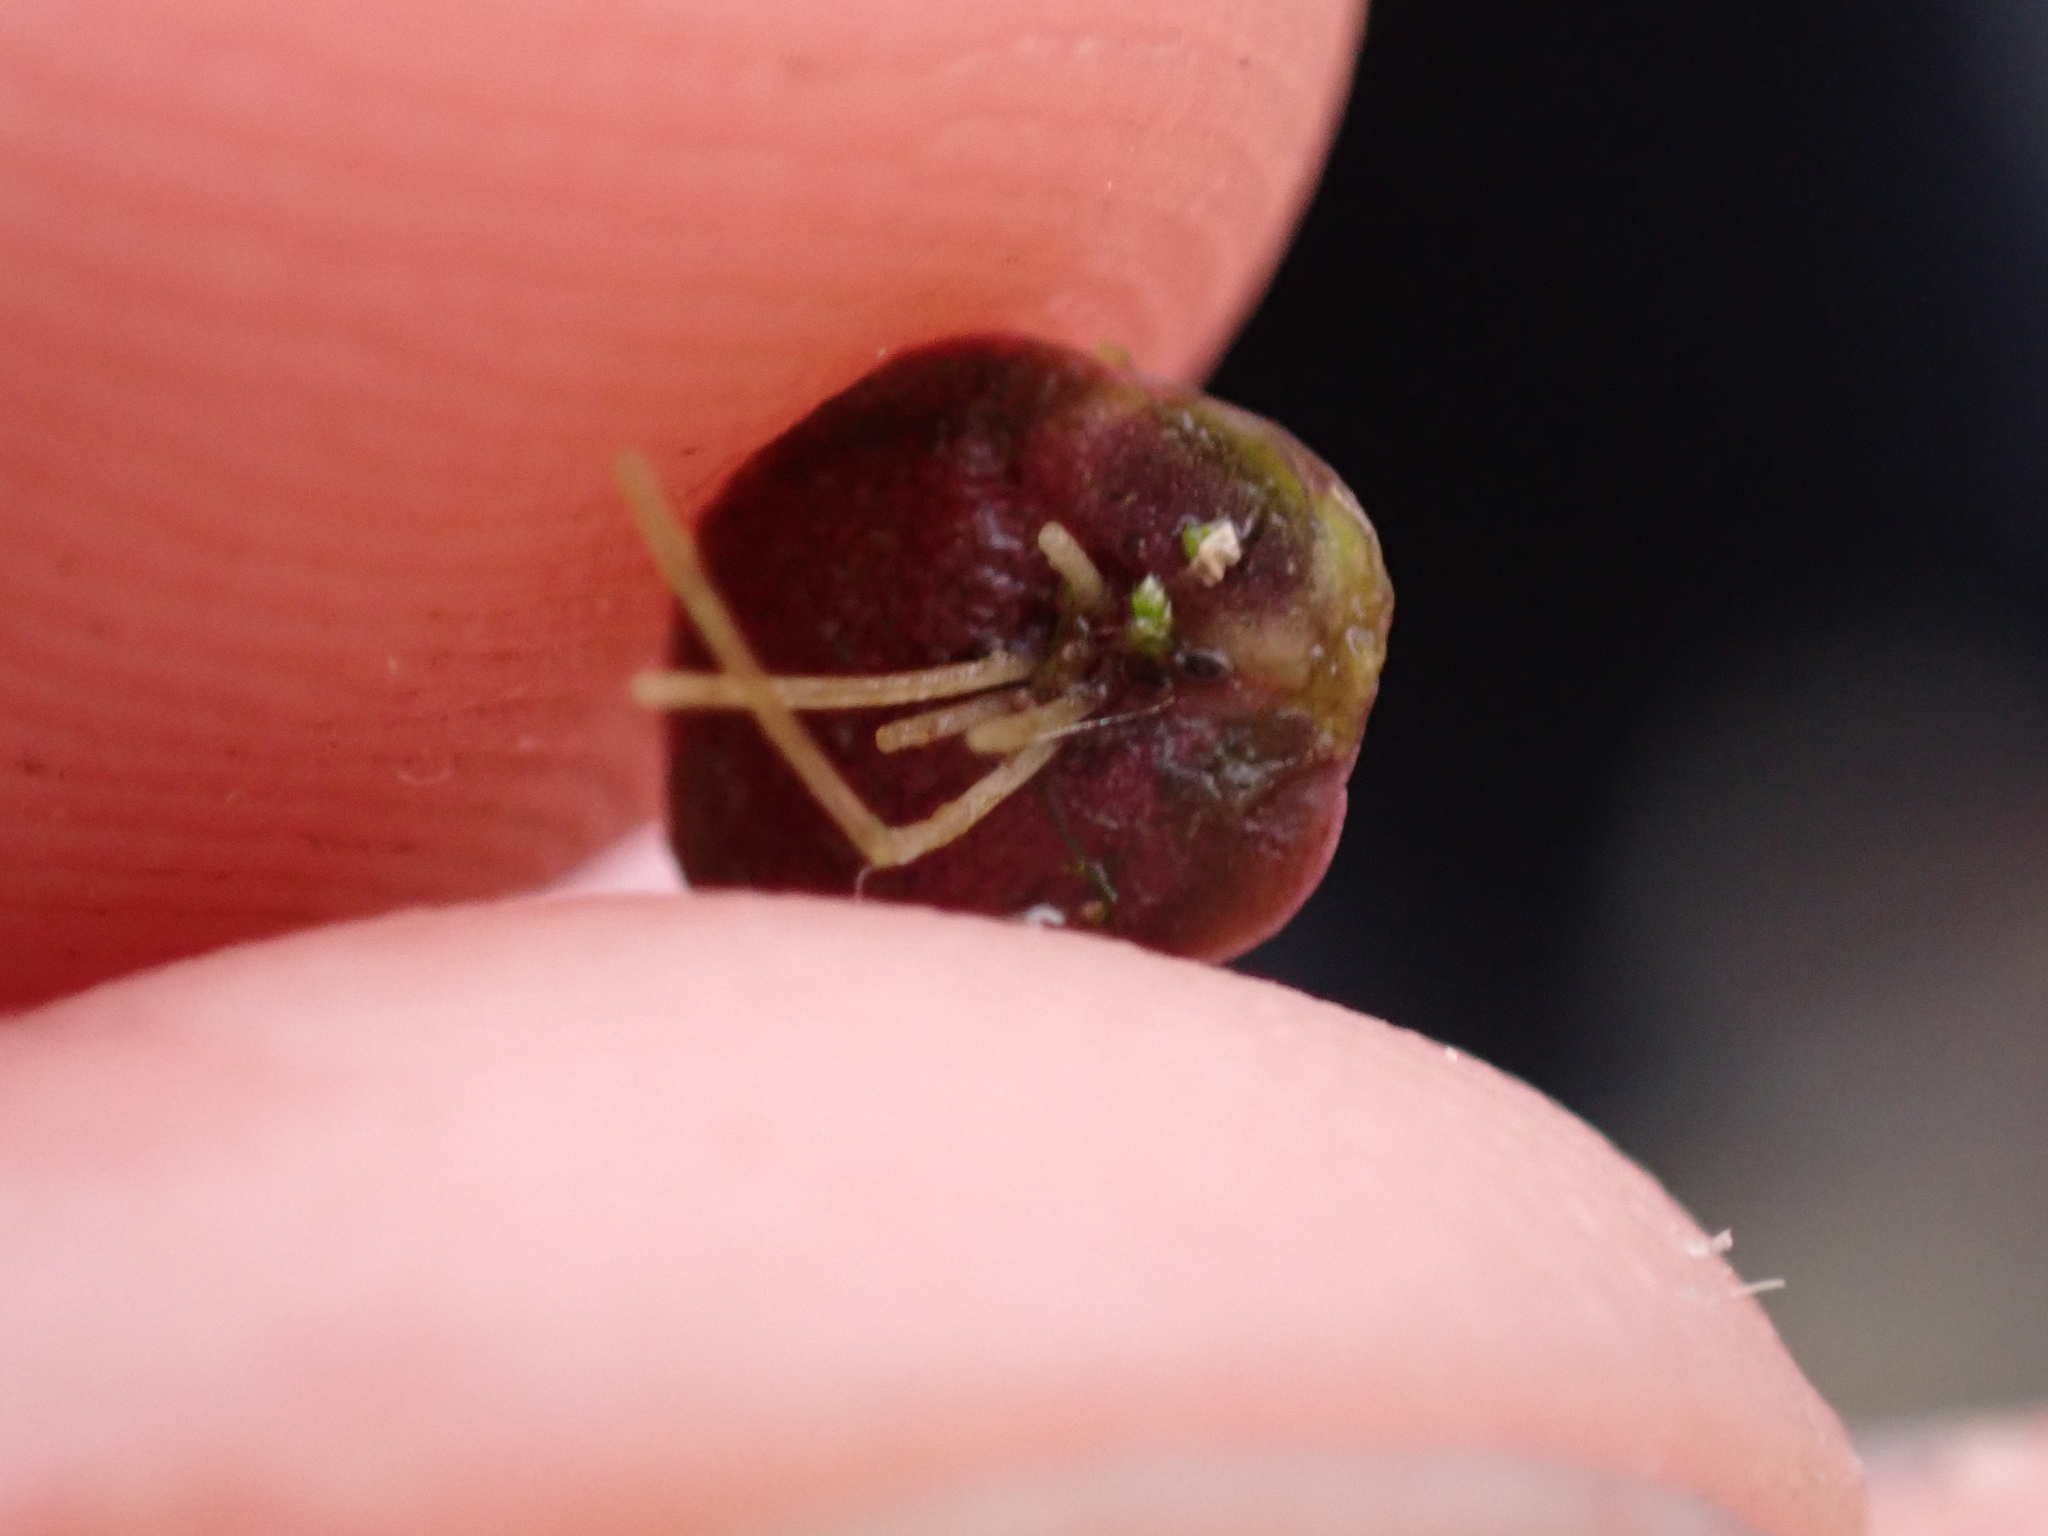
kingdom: Plantae
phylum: Tracheophyta
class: Liliopsida
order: Alismatales
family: Araceae
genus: Spirodela
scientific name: Spirodela polyrhiza
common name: Great duckweed
